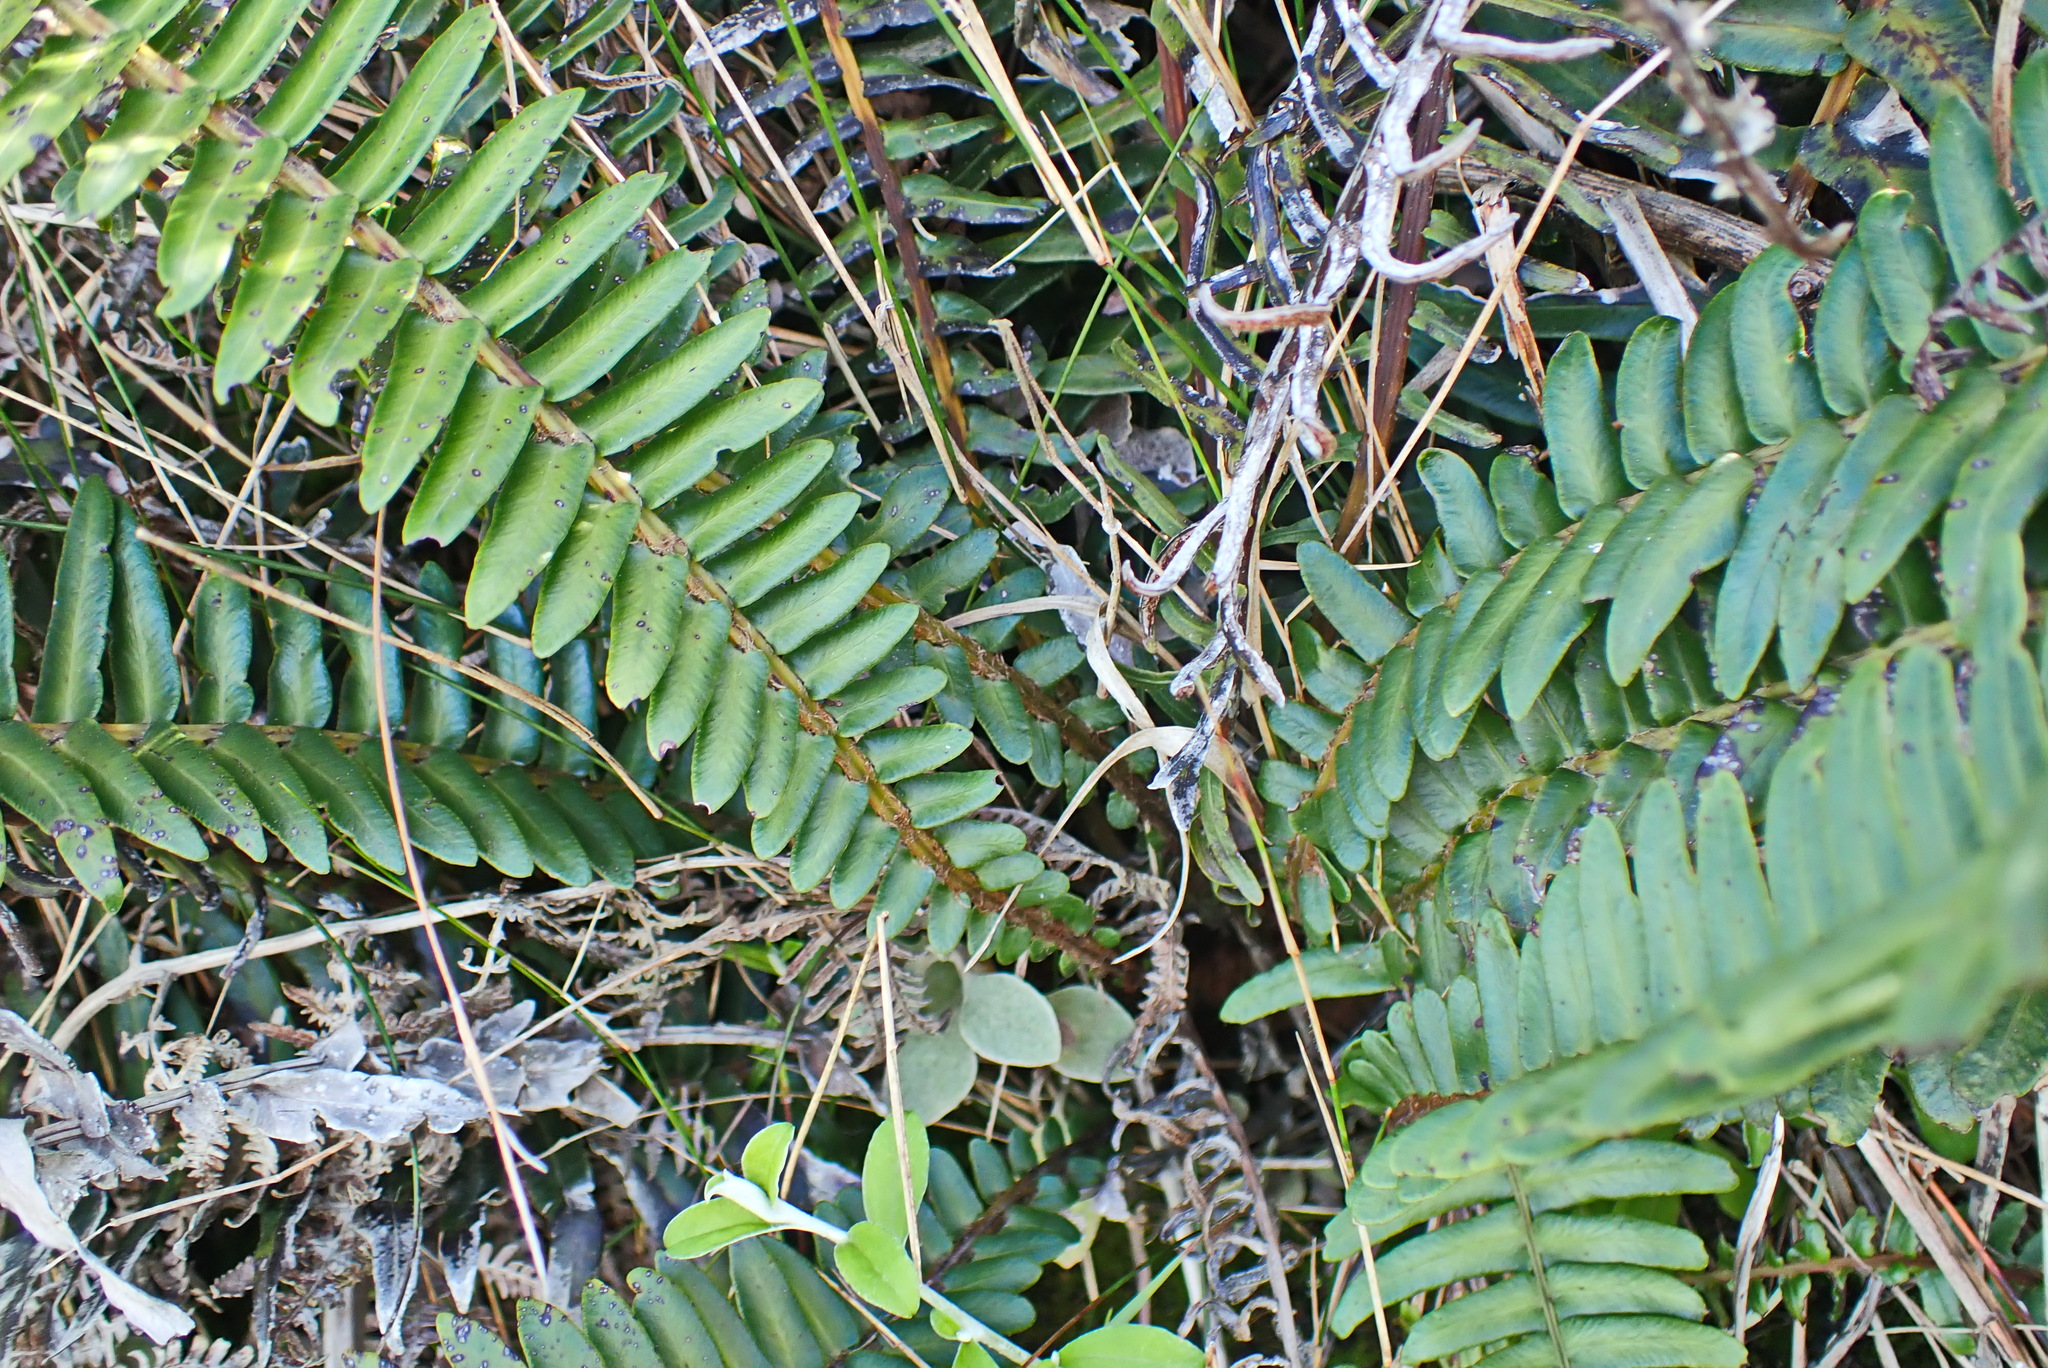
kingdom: Plantae
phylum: Tracheophyta
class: Polypodiopsida
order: Polypodiales
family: Blechnaceae
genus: Blechnum
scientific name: Blechnum punctulatum
